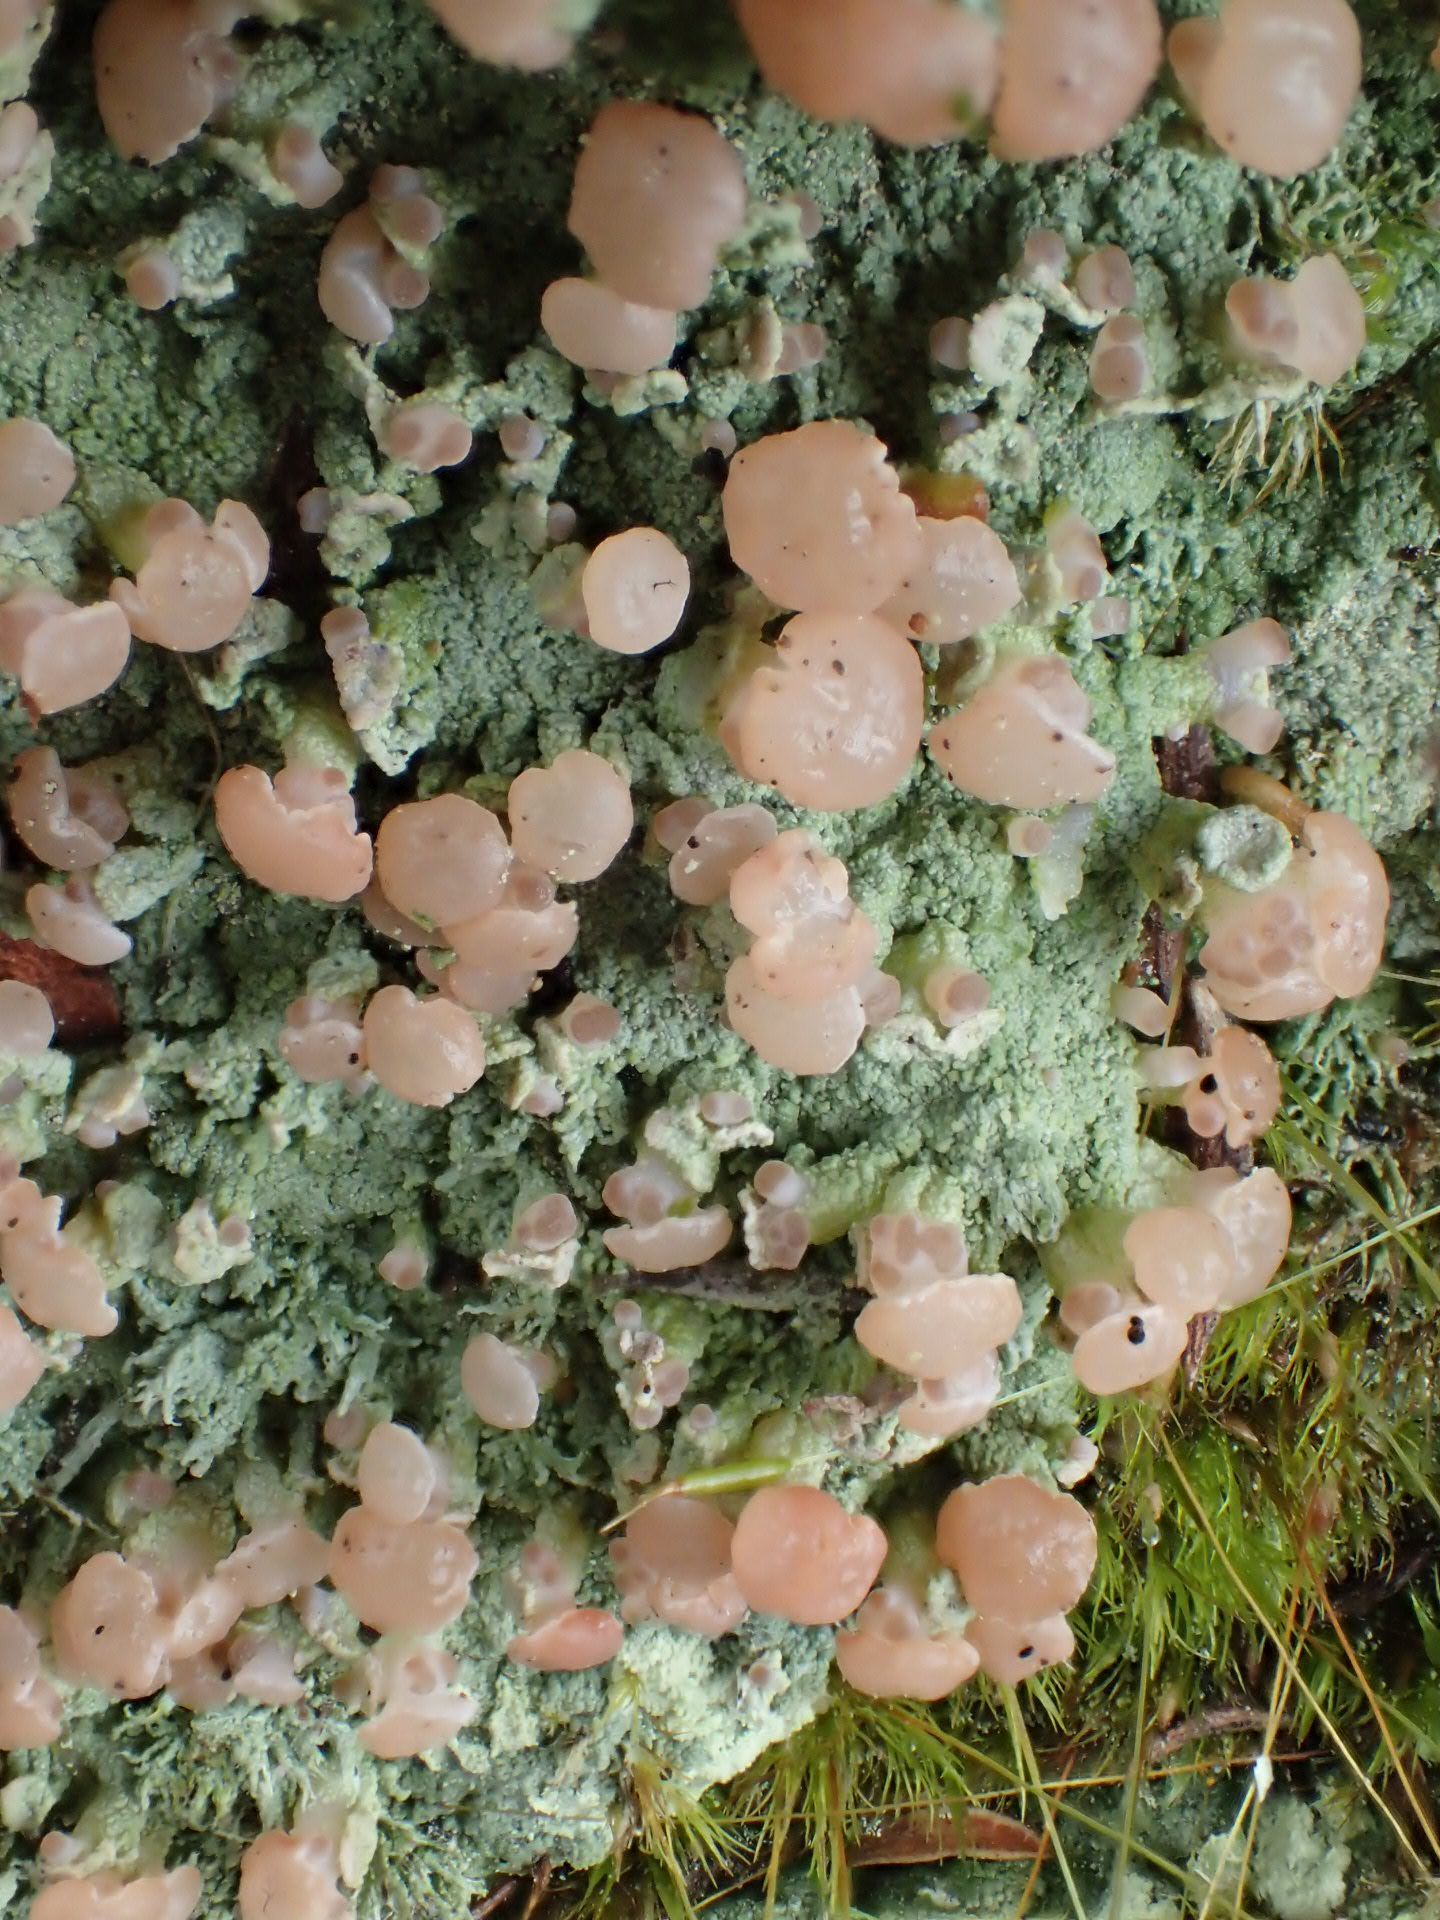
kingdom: Fungi
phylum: Ascomycota
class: Lecanoromycetes
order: Baeomycetales
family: Baeomycetaceae
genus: Baeomyces
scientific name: Baeomyces heteromorphus
